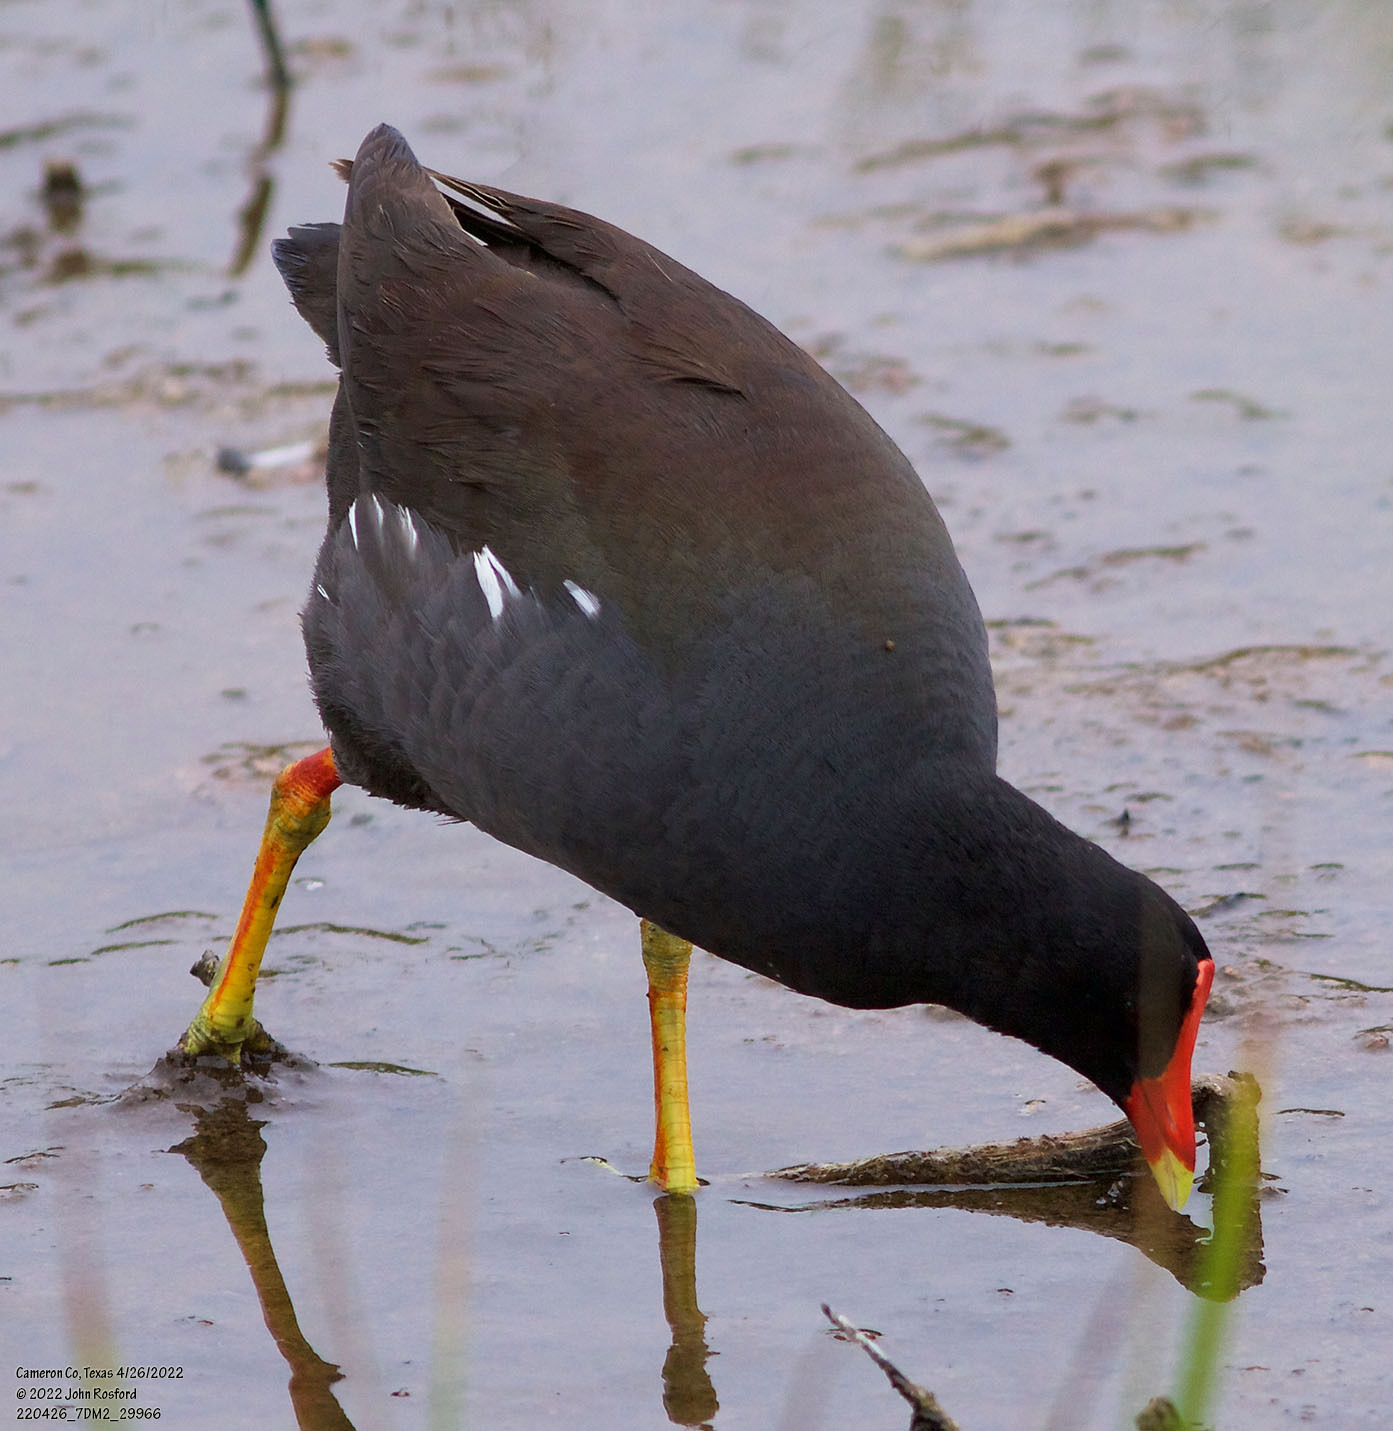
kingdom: Animalia
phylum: Chordata
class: Aves
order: Gruiformes
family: Rallidae
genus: Gallinula
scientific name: Gallinula chloropus
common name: Common moorhen
